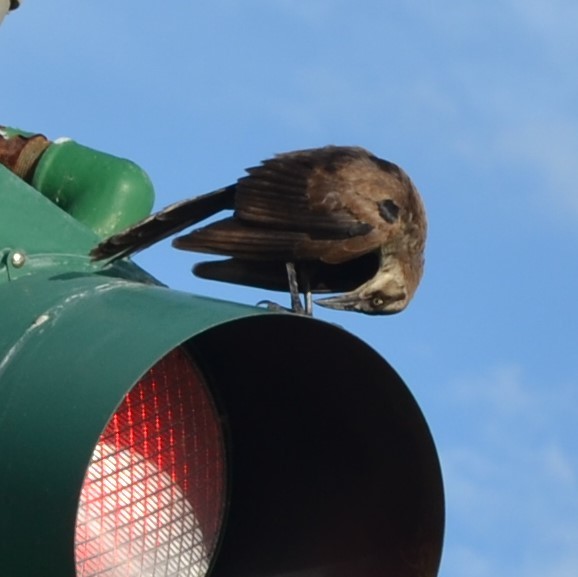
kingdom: Animalia
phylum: Chordata
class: Aves
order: Passeriformes
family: Icteridae
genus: Quiscalus
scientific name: Quiscalus mexicanus
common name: Great-tailed grackle
